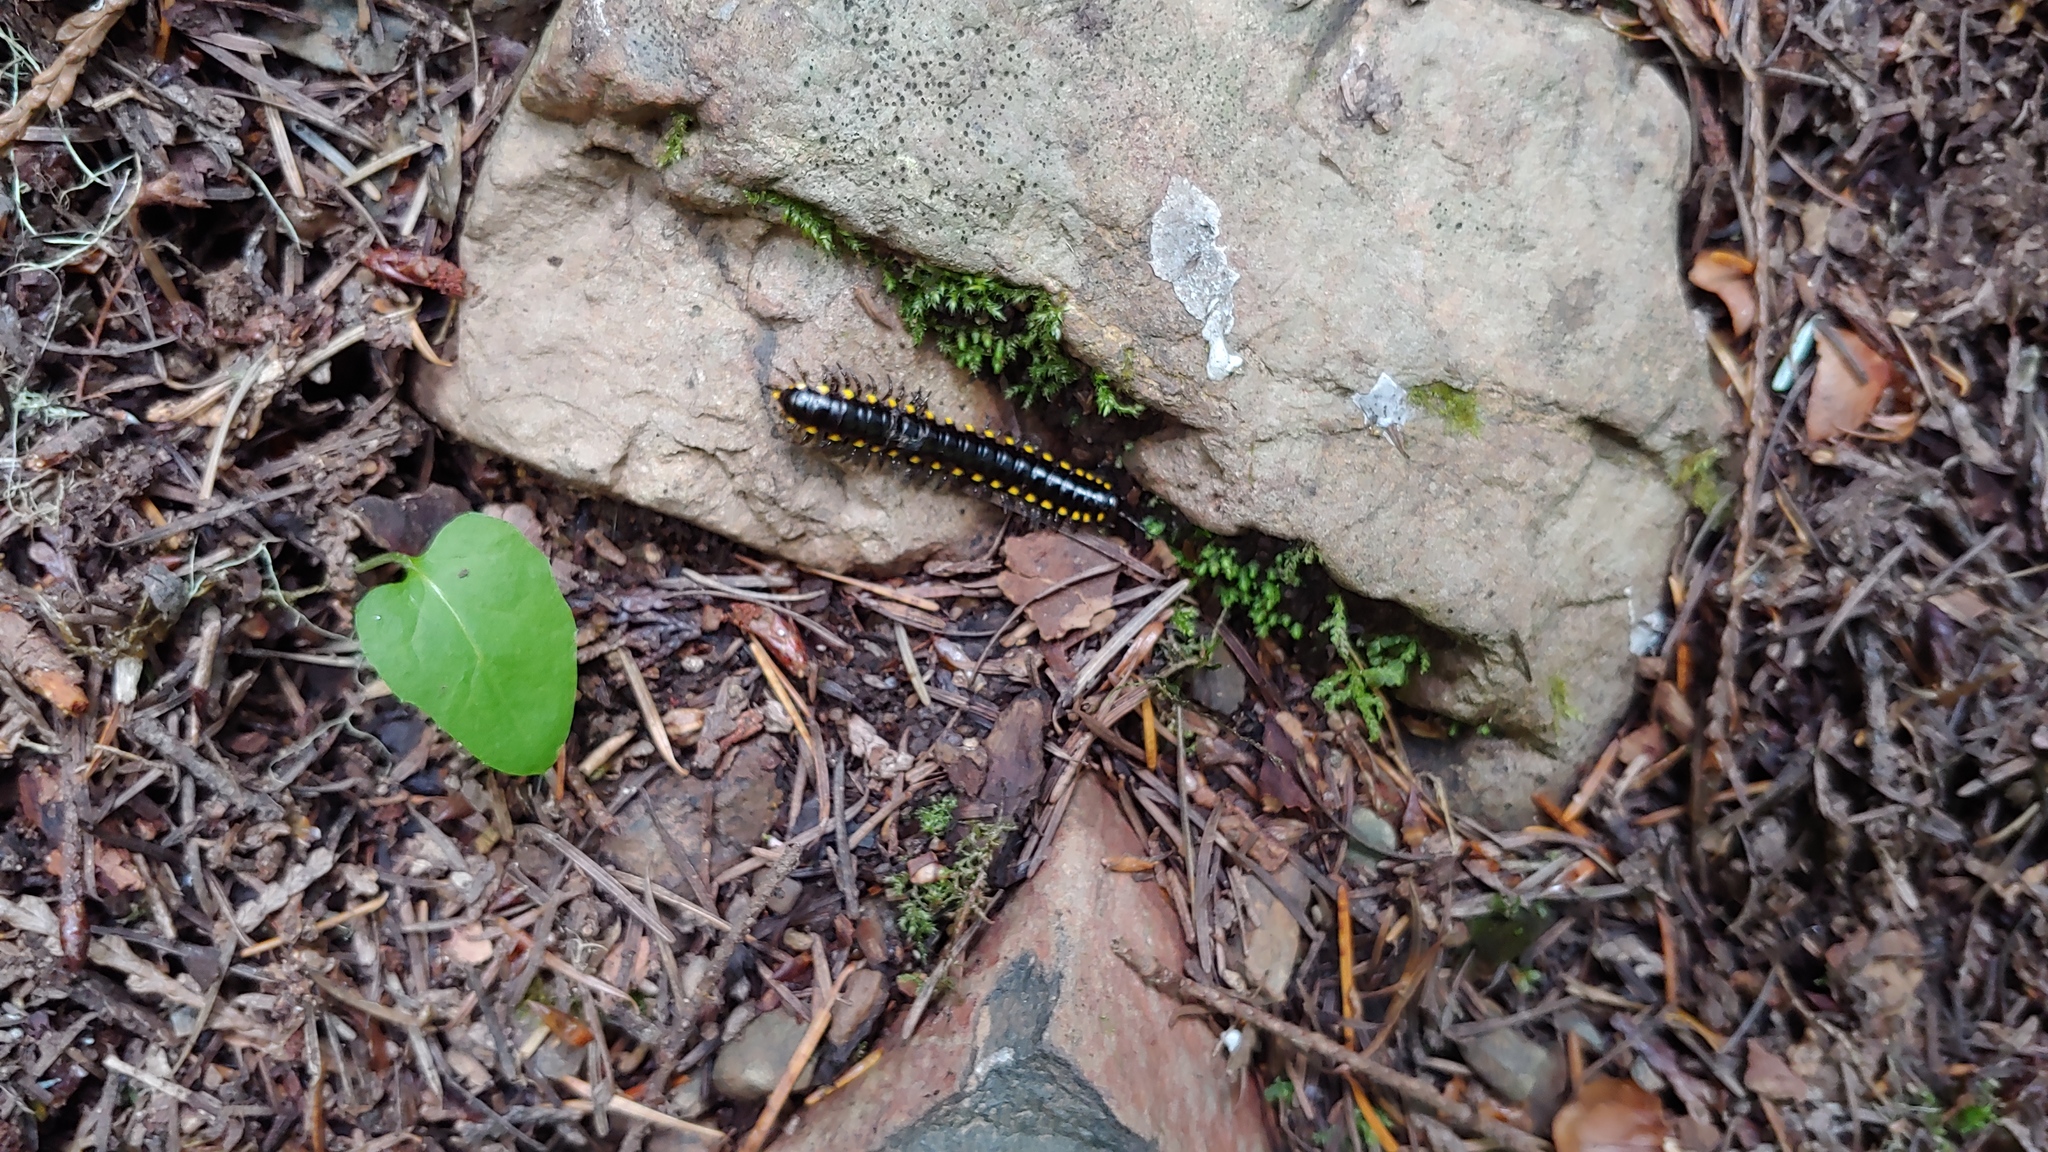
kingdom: Animalia
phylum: Arthropoda
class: Diplopoda
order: Polydesmida
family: Xystodesmidae
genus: Harpaphe
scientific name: Harpaphe haydeniana
